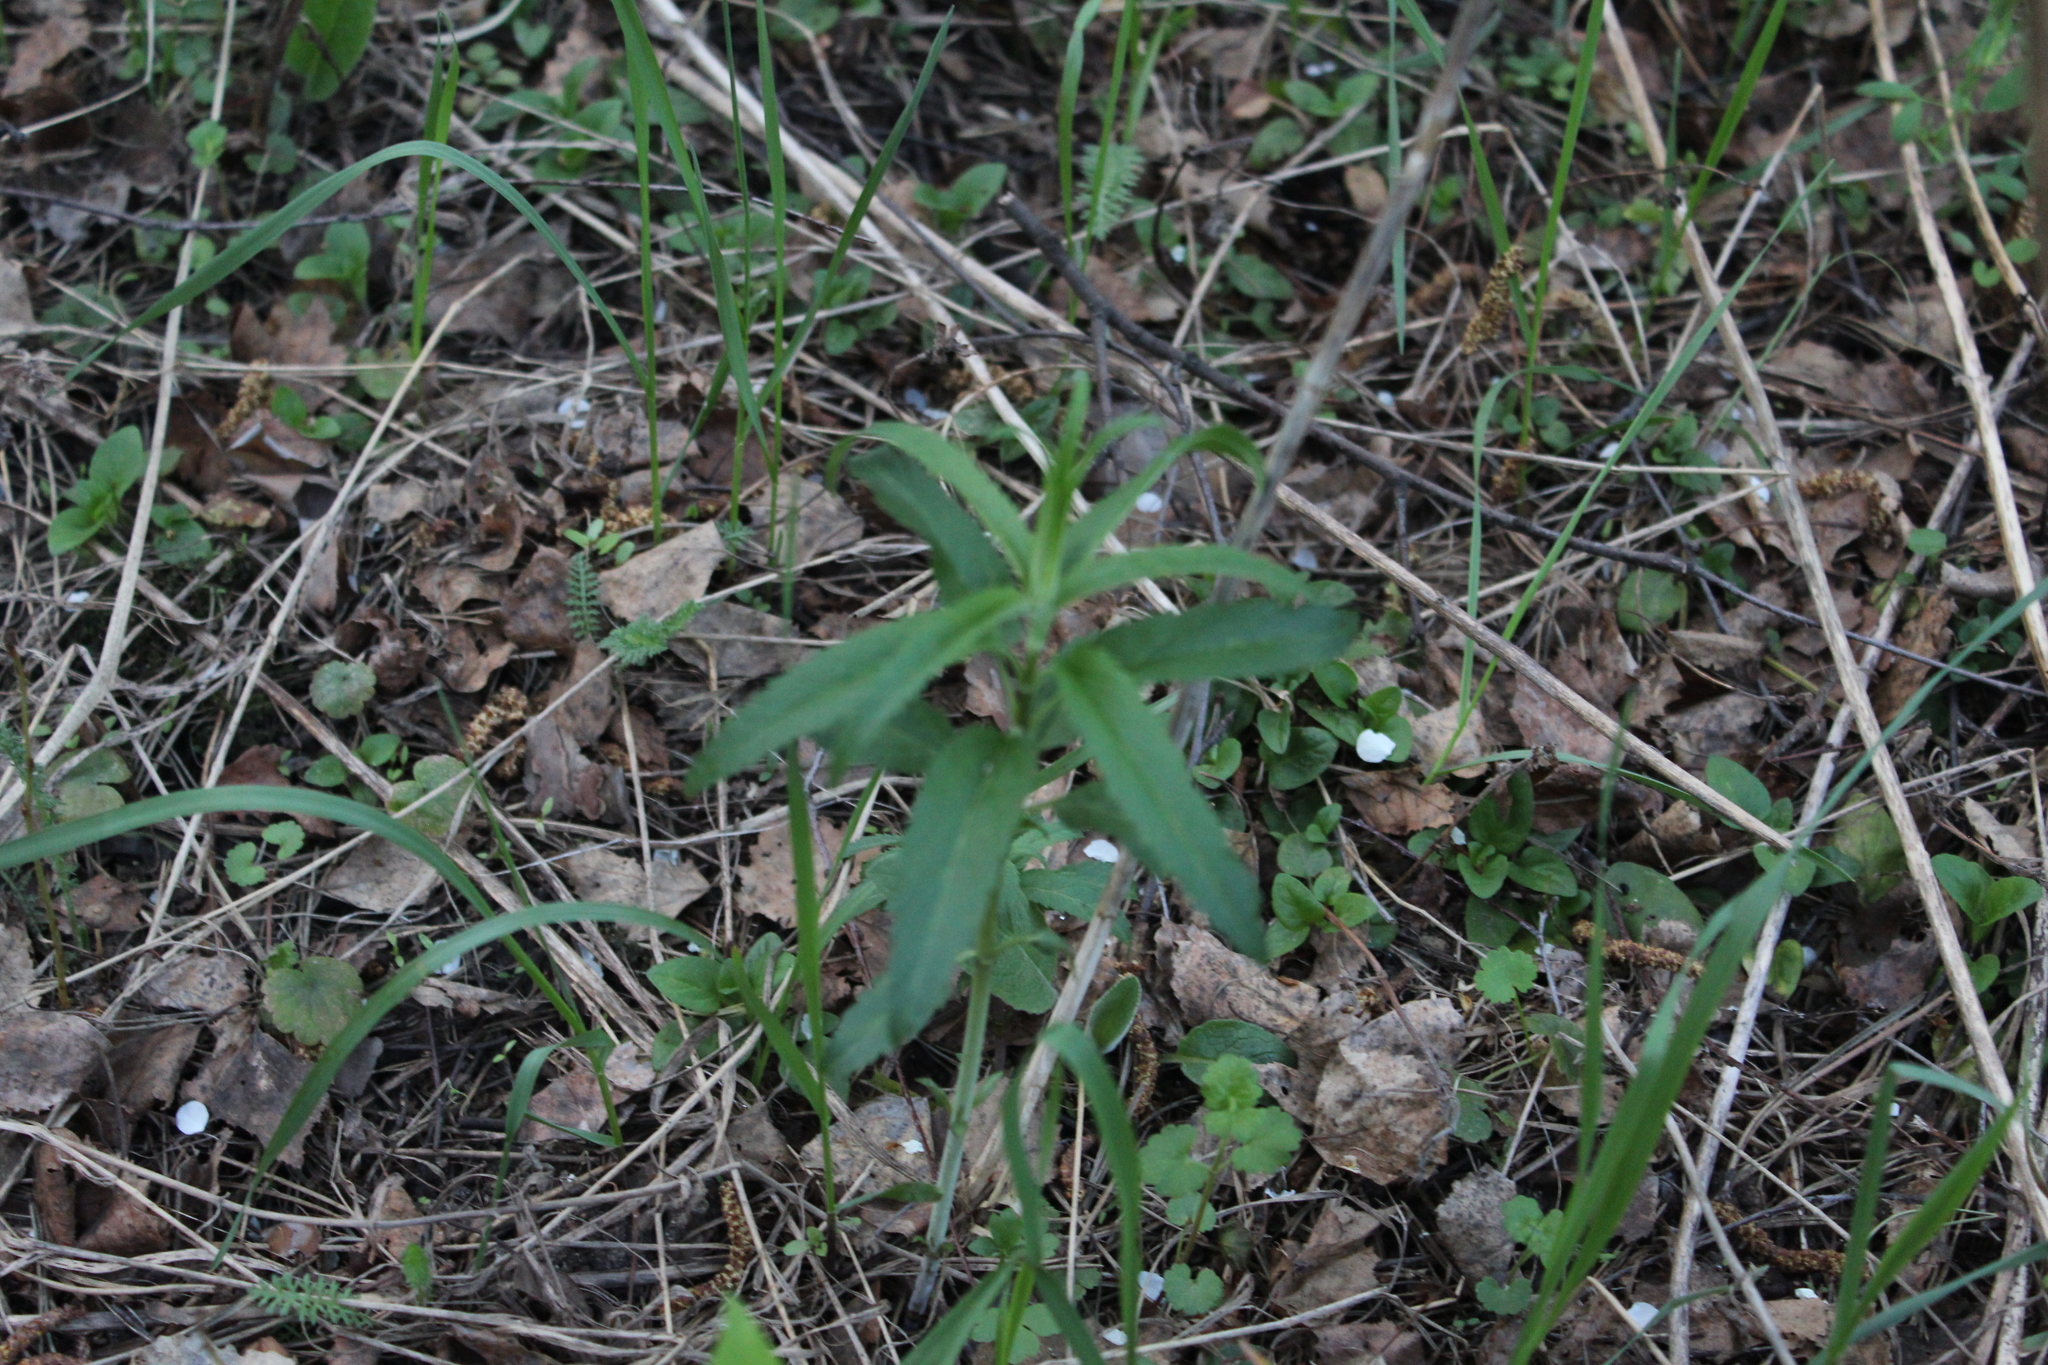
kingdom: Plantae
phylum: Tracheophyta
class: Magnoliopsida
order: Lamiales
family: Plantaginaceae
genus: Veronica
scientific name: Veronica longifolia
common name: Garden speedwell
